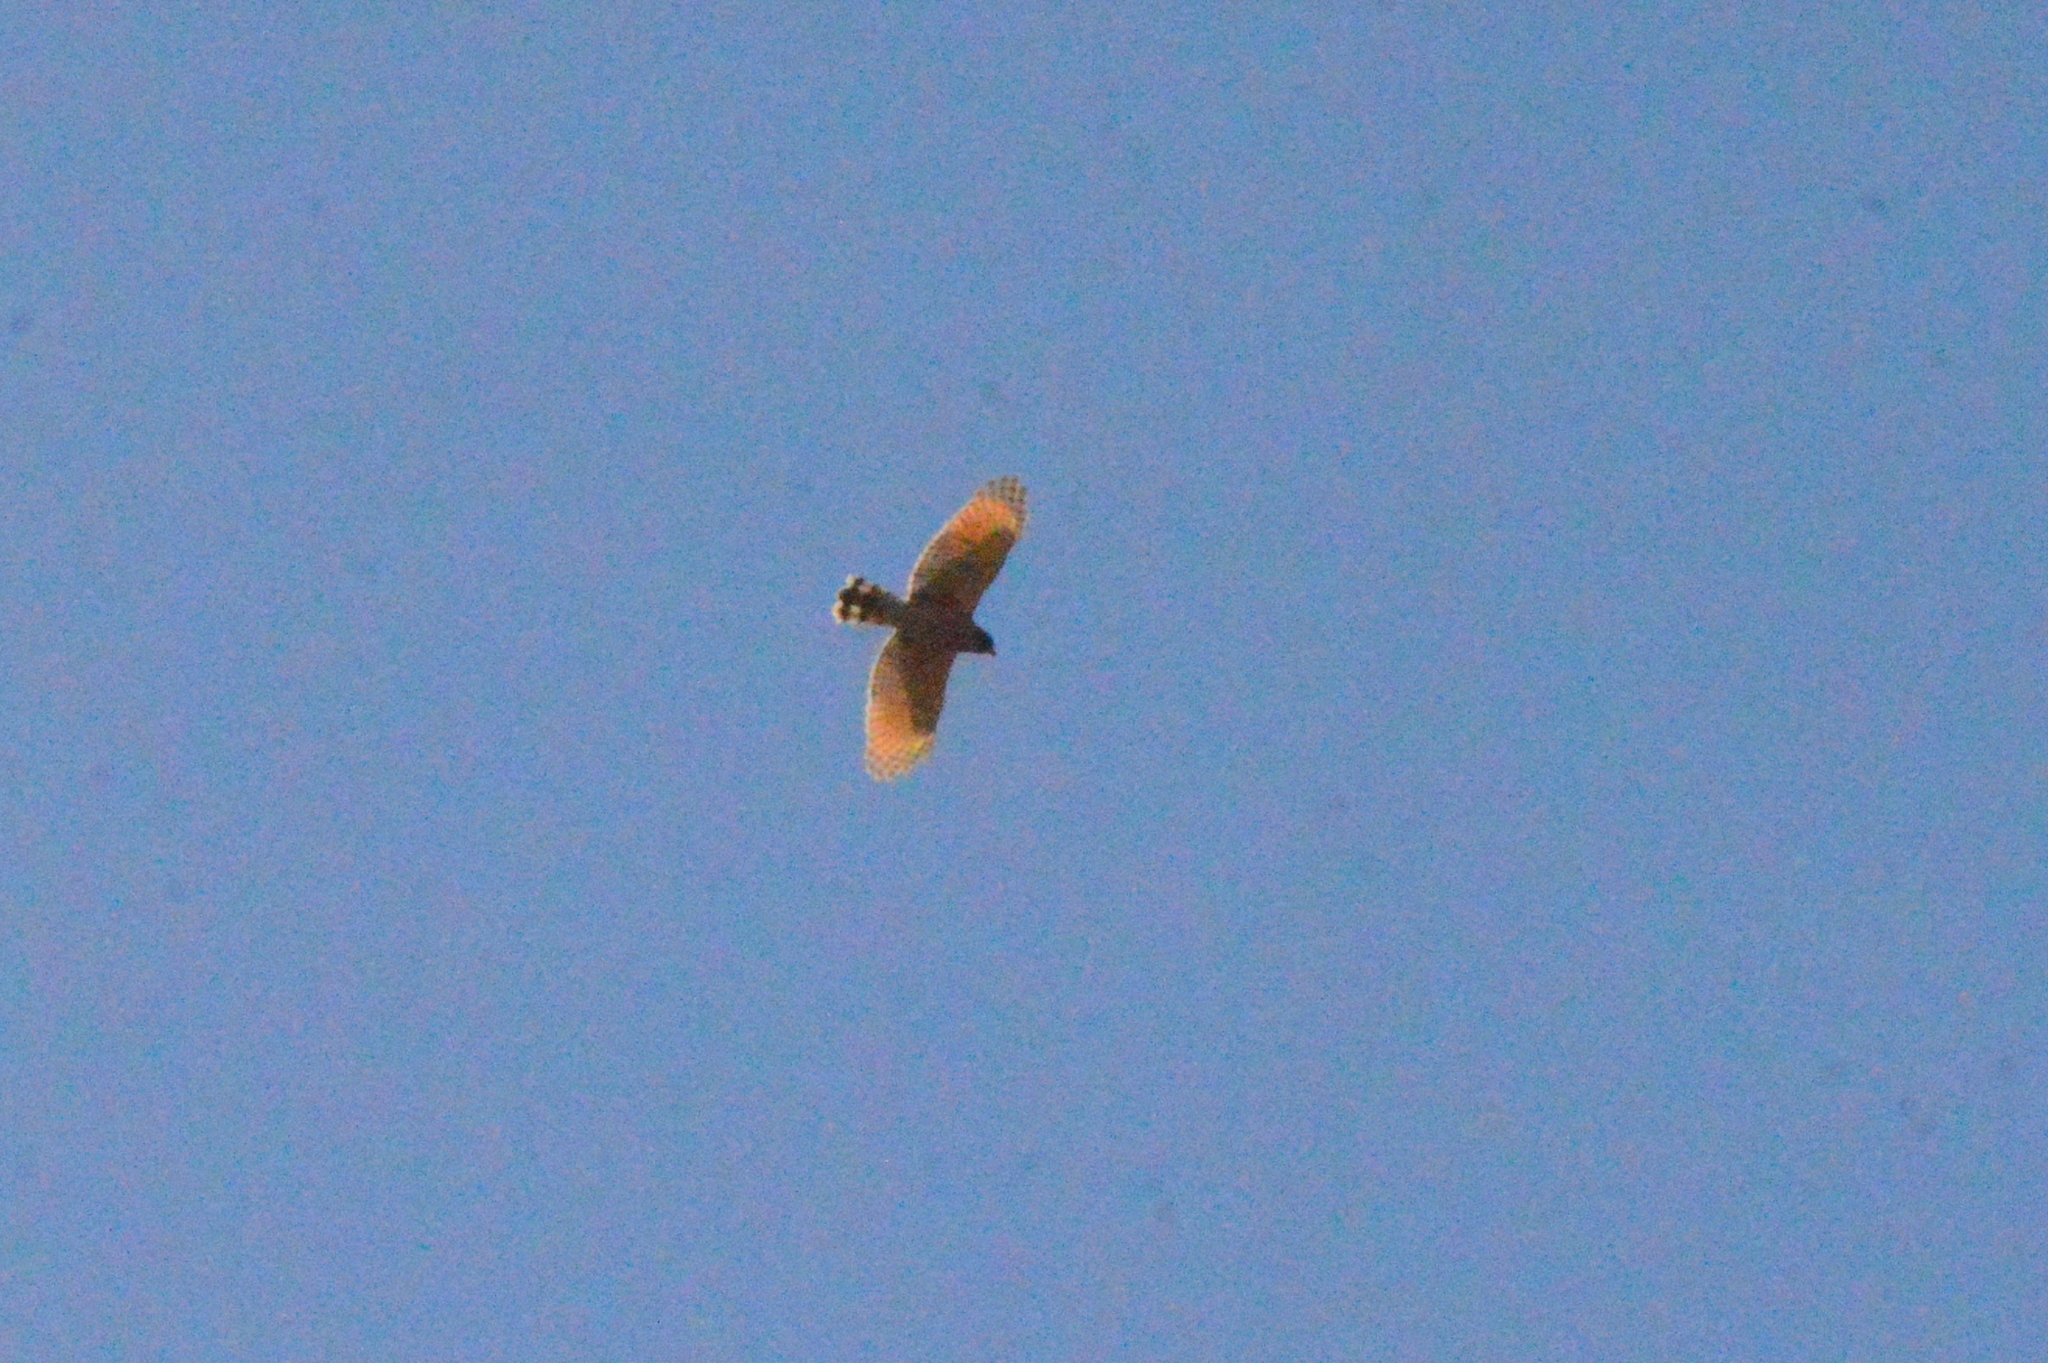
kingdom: Animalia
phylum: Chordata
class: Aves
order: Accipitriformes
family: Accipitridae
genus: Rupornis
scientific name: Rupornis magnirostris
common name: Roadside hawk
